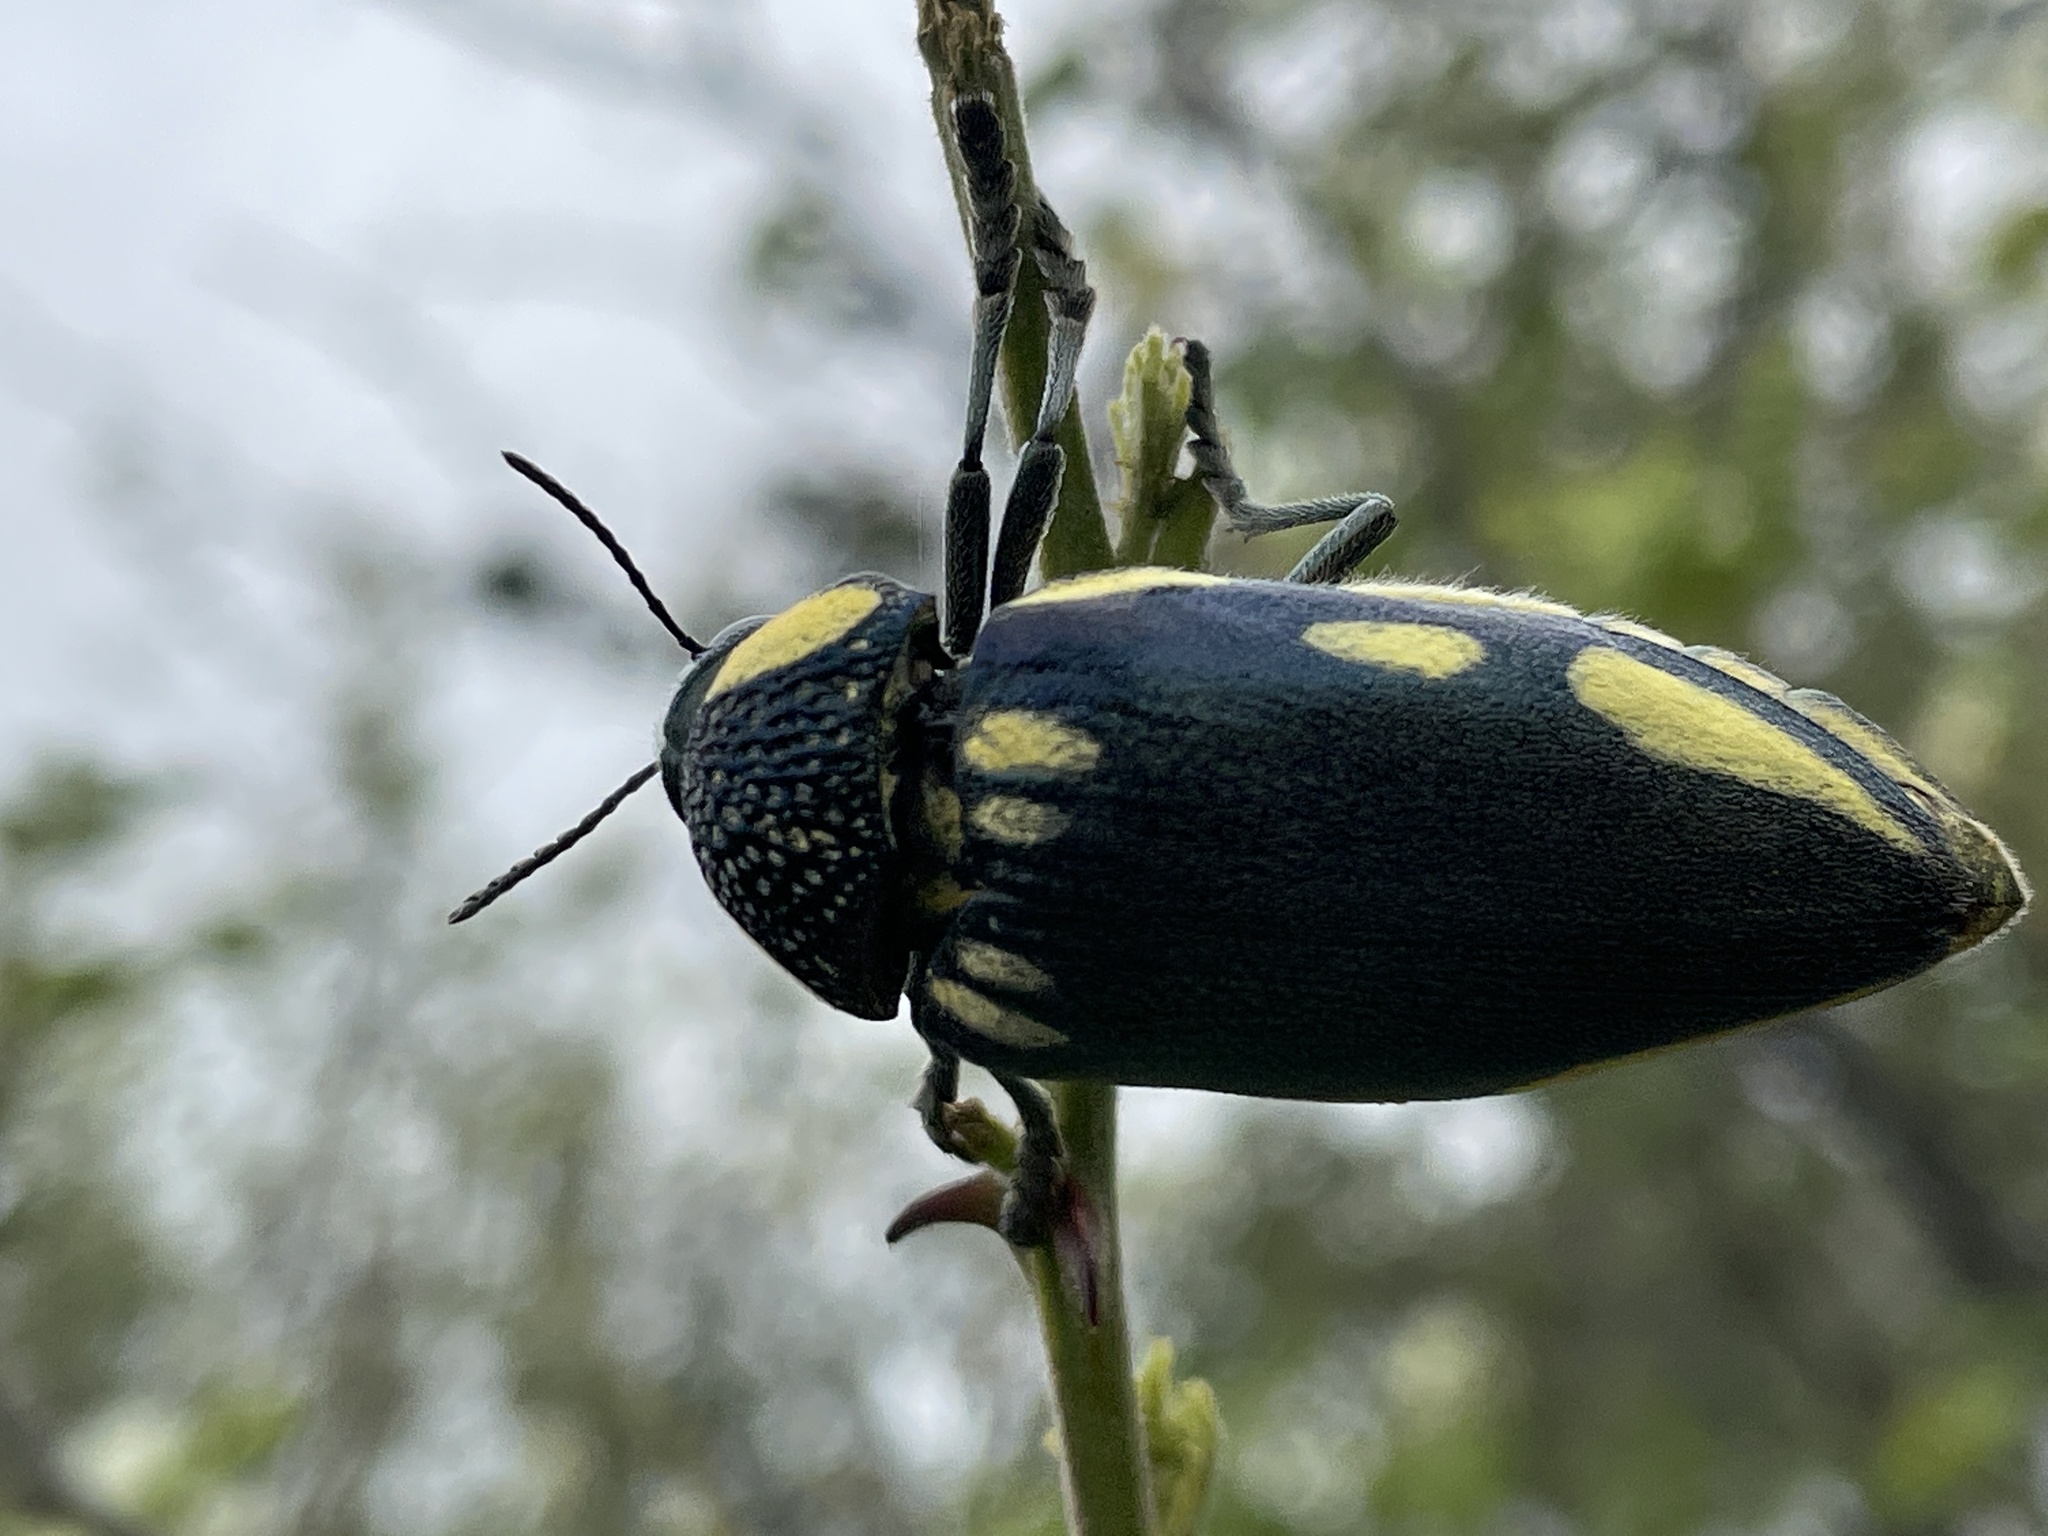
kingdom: Animalia
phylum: Arthropoda
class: Insecta
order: Coleoptera
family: Buprestidae
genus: Sternocera
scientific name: Sternocera orissa
